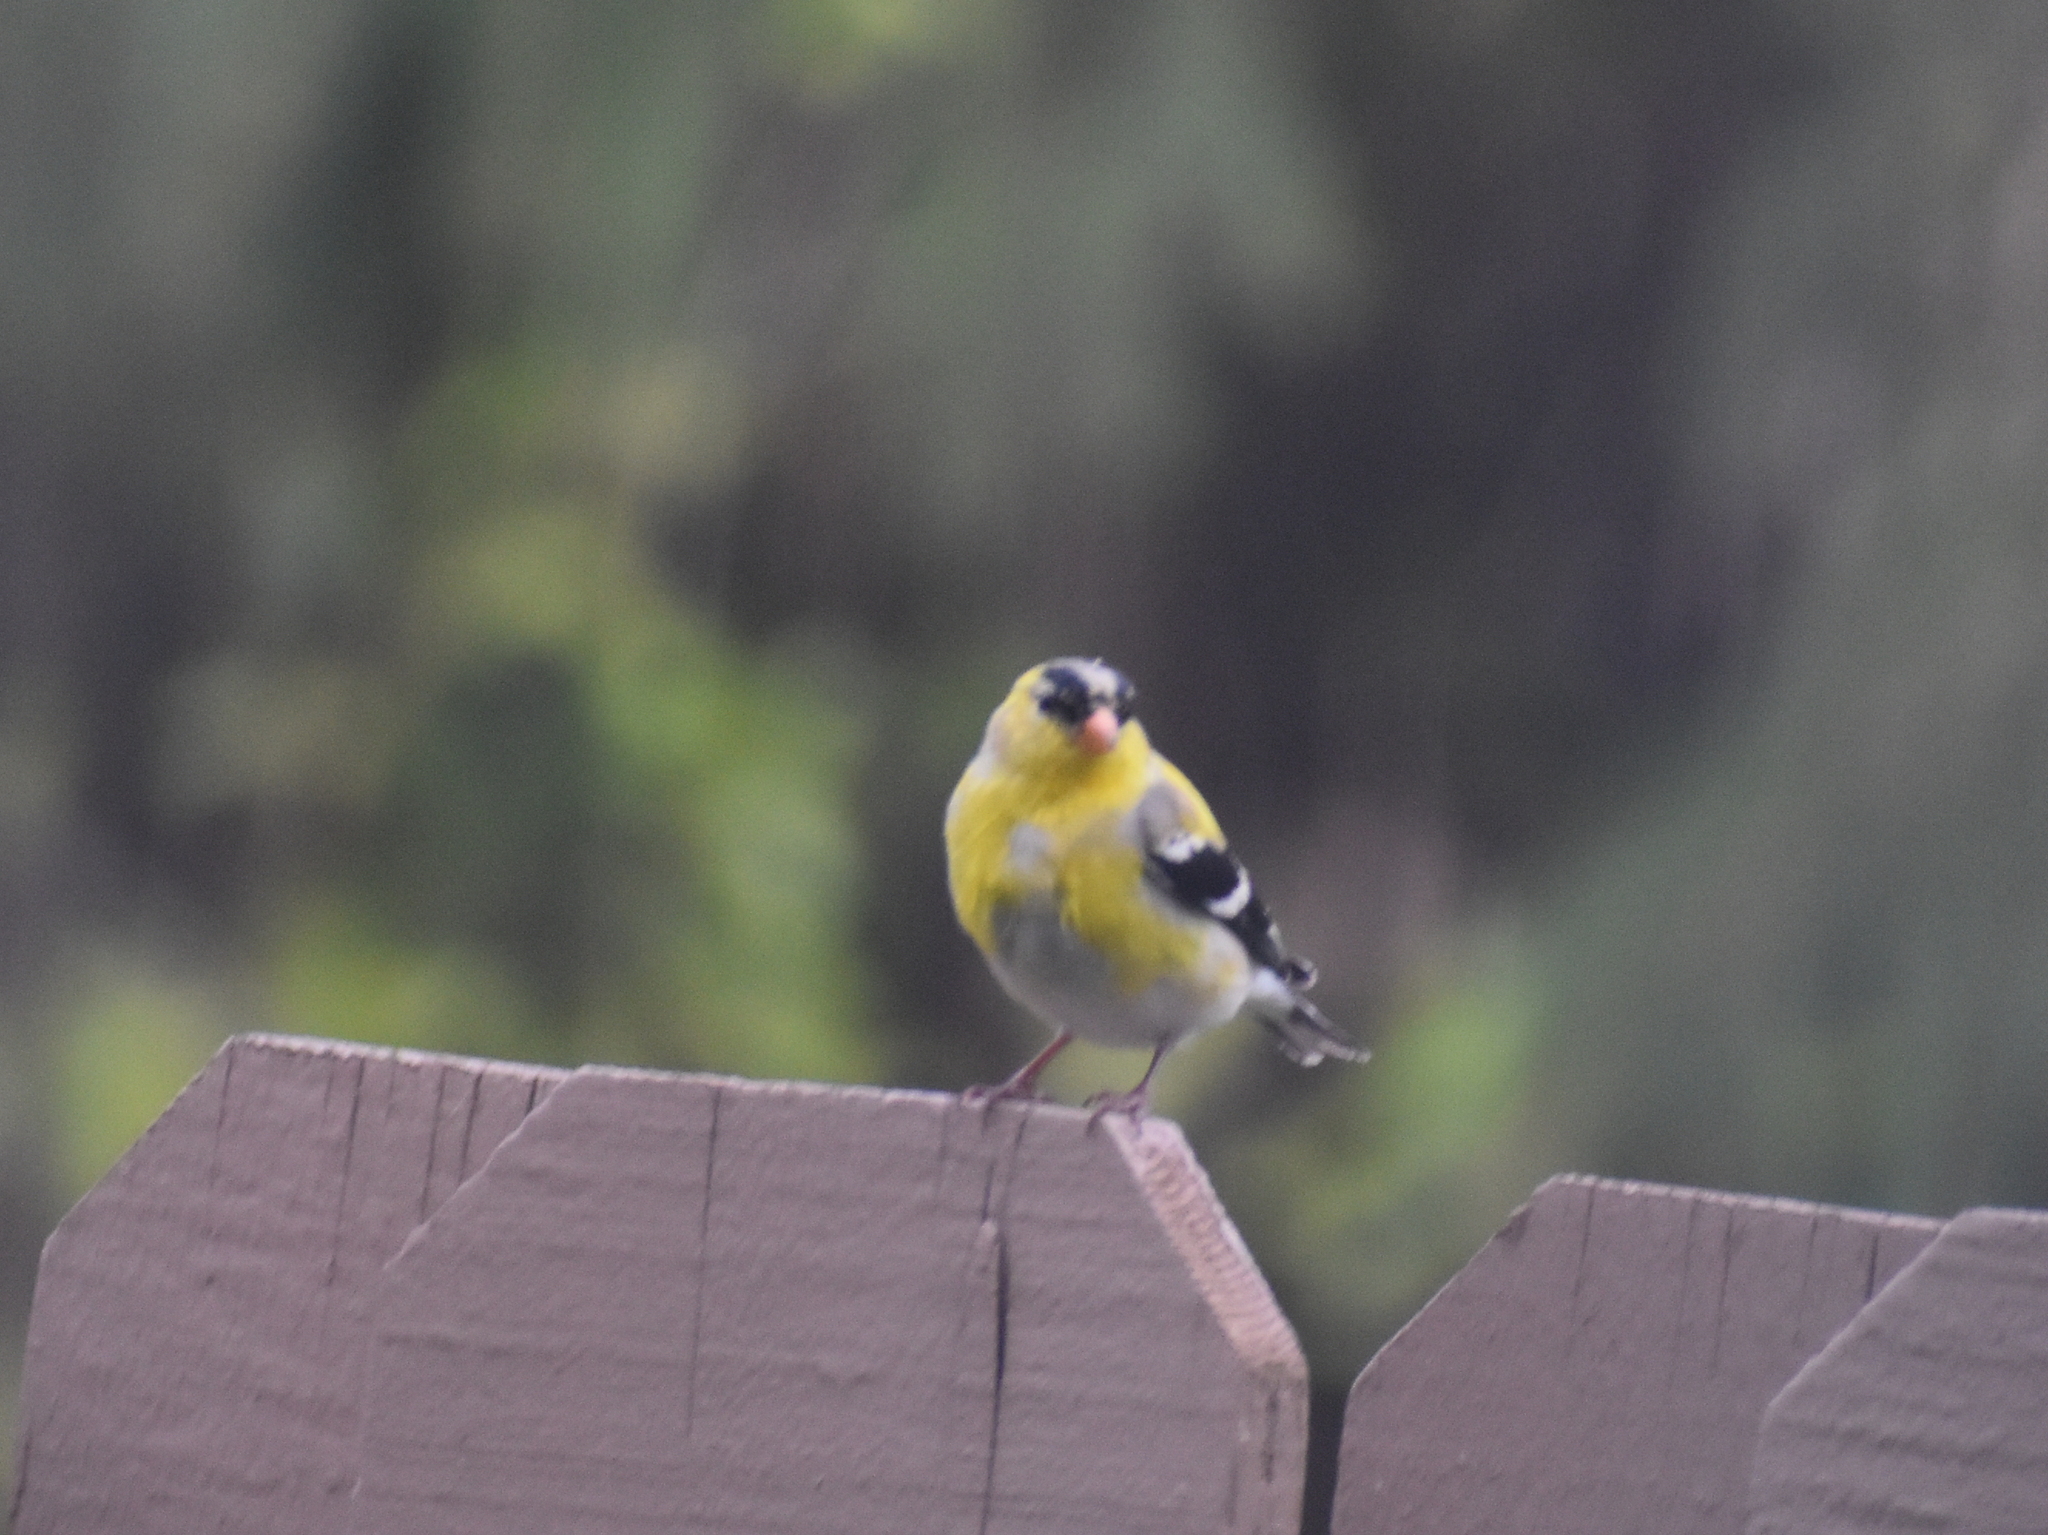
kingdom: Animalia
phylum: Chordata
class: Aves
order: Passeriformes
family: Fringillidae
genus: Spinus
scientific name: Spinus tristis
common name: American goldfinch
